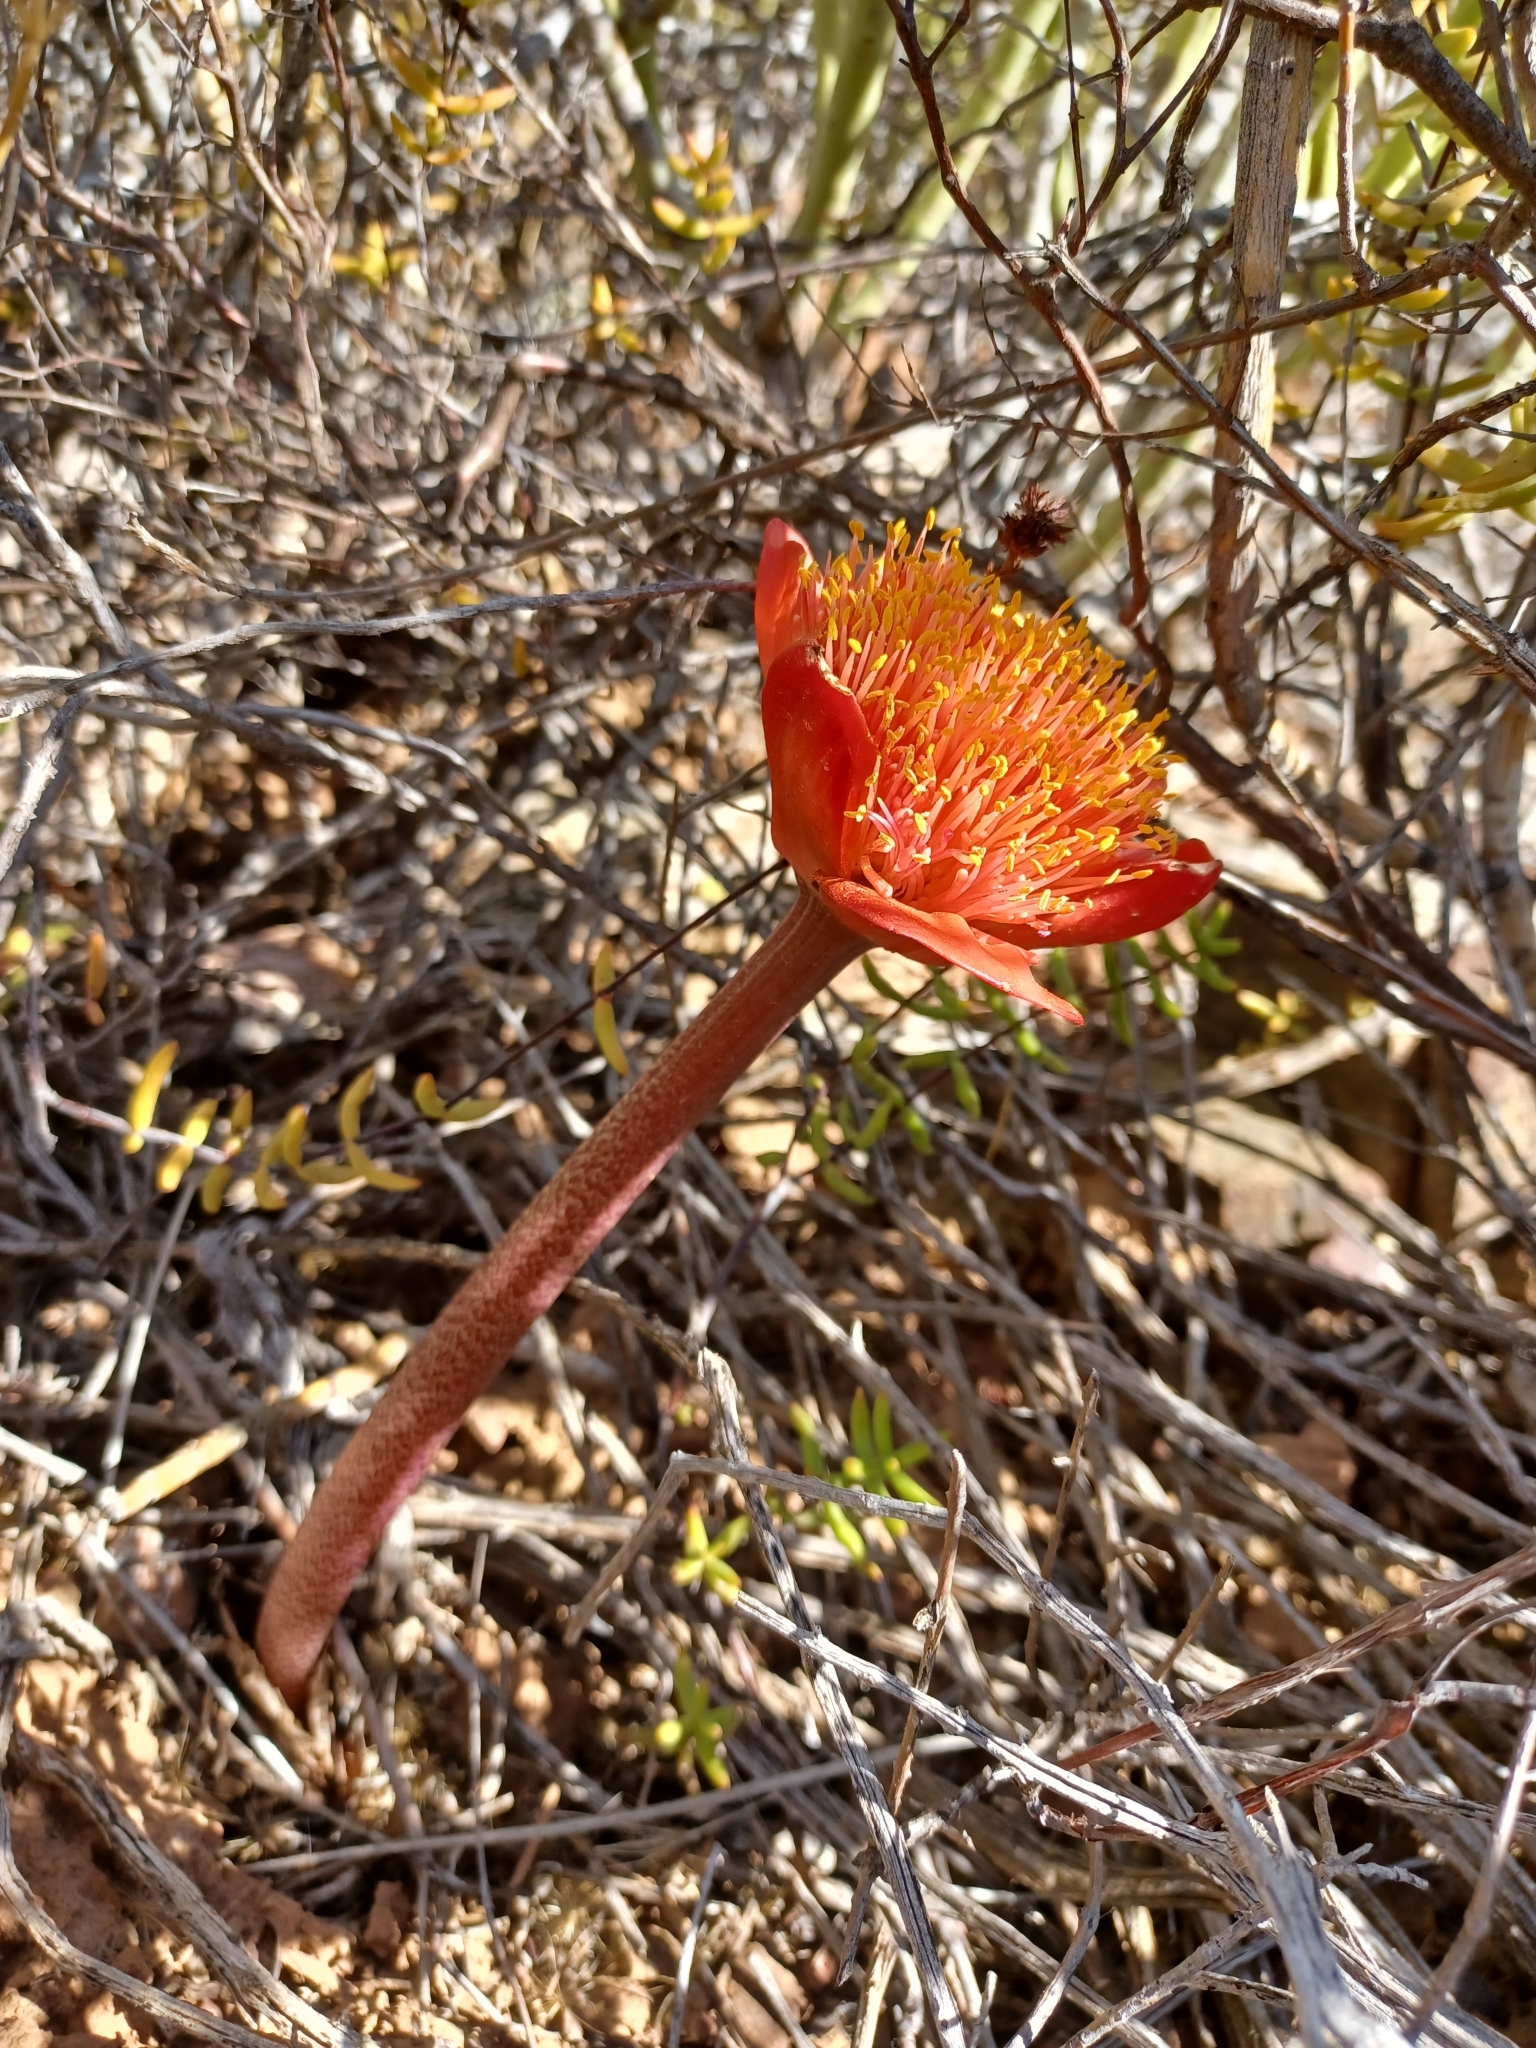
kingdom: Plantae
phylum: Tracheophyta
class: Liliopsida
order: Asparagales
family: Amaryllidaceae
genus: Haemanthus
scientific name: Haemanthus coccineus
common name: Cape-tulip
